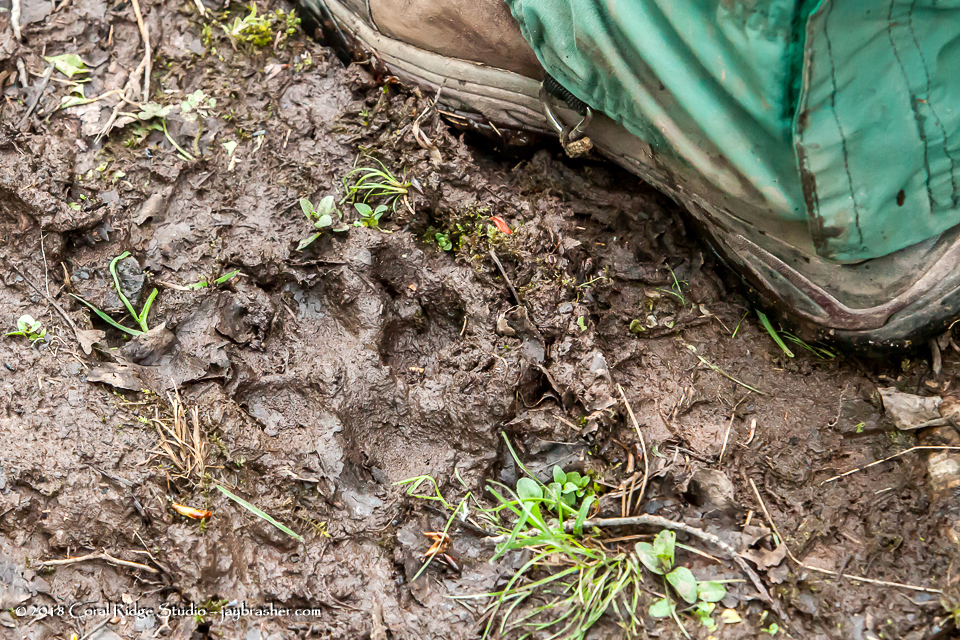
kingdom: Animalia
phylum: Chordata
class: Mammalia
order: Carnivora
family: Canidae
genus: Canis
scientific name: Canis lupus
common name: Gray wolf
